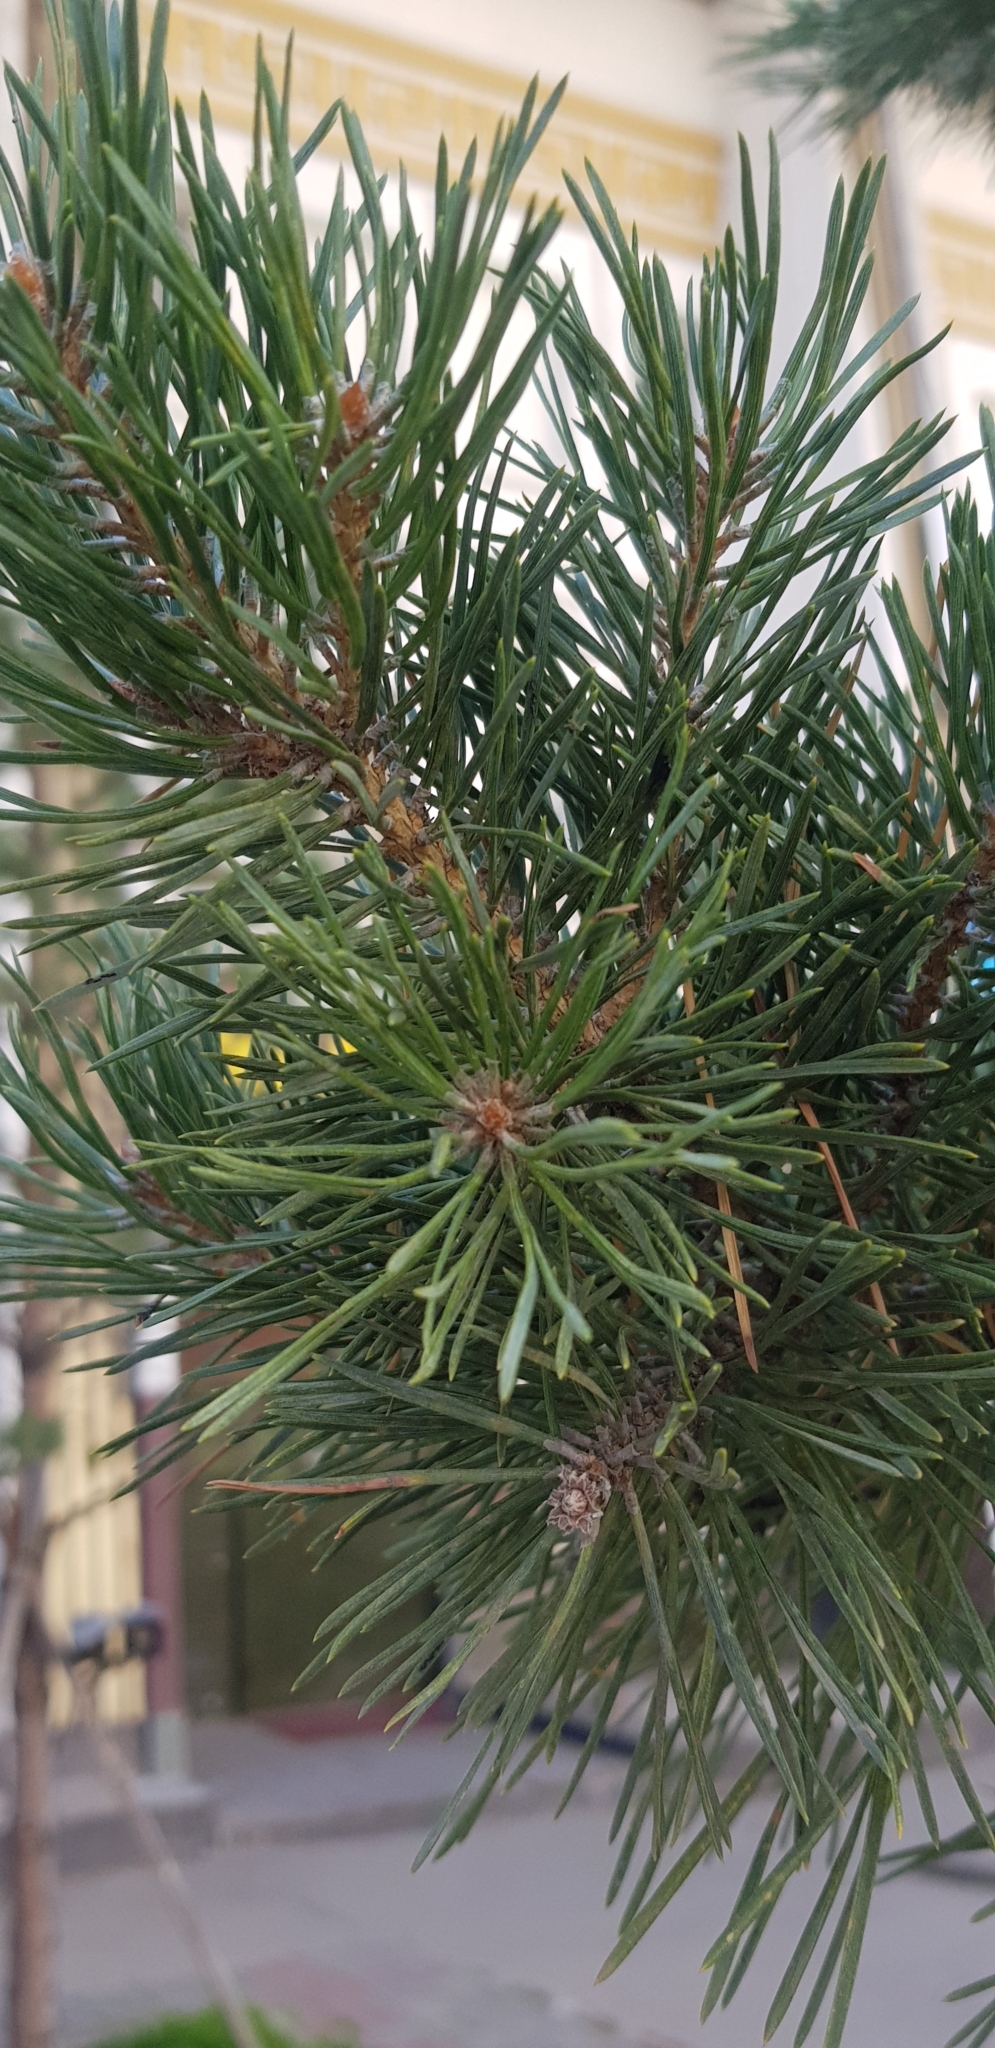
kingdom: Plantae
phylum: Tracheophyta
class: Pinopsida
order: Pinales
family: Pinaceae
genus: Pinus
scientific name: Pinus sylvestris
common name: Scots pine
